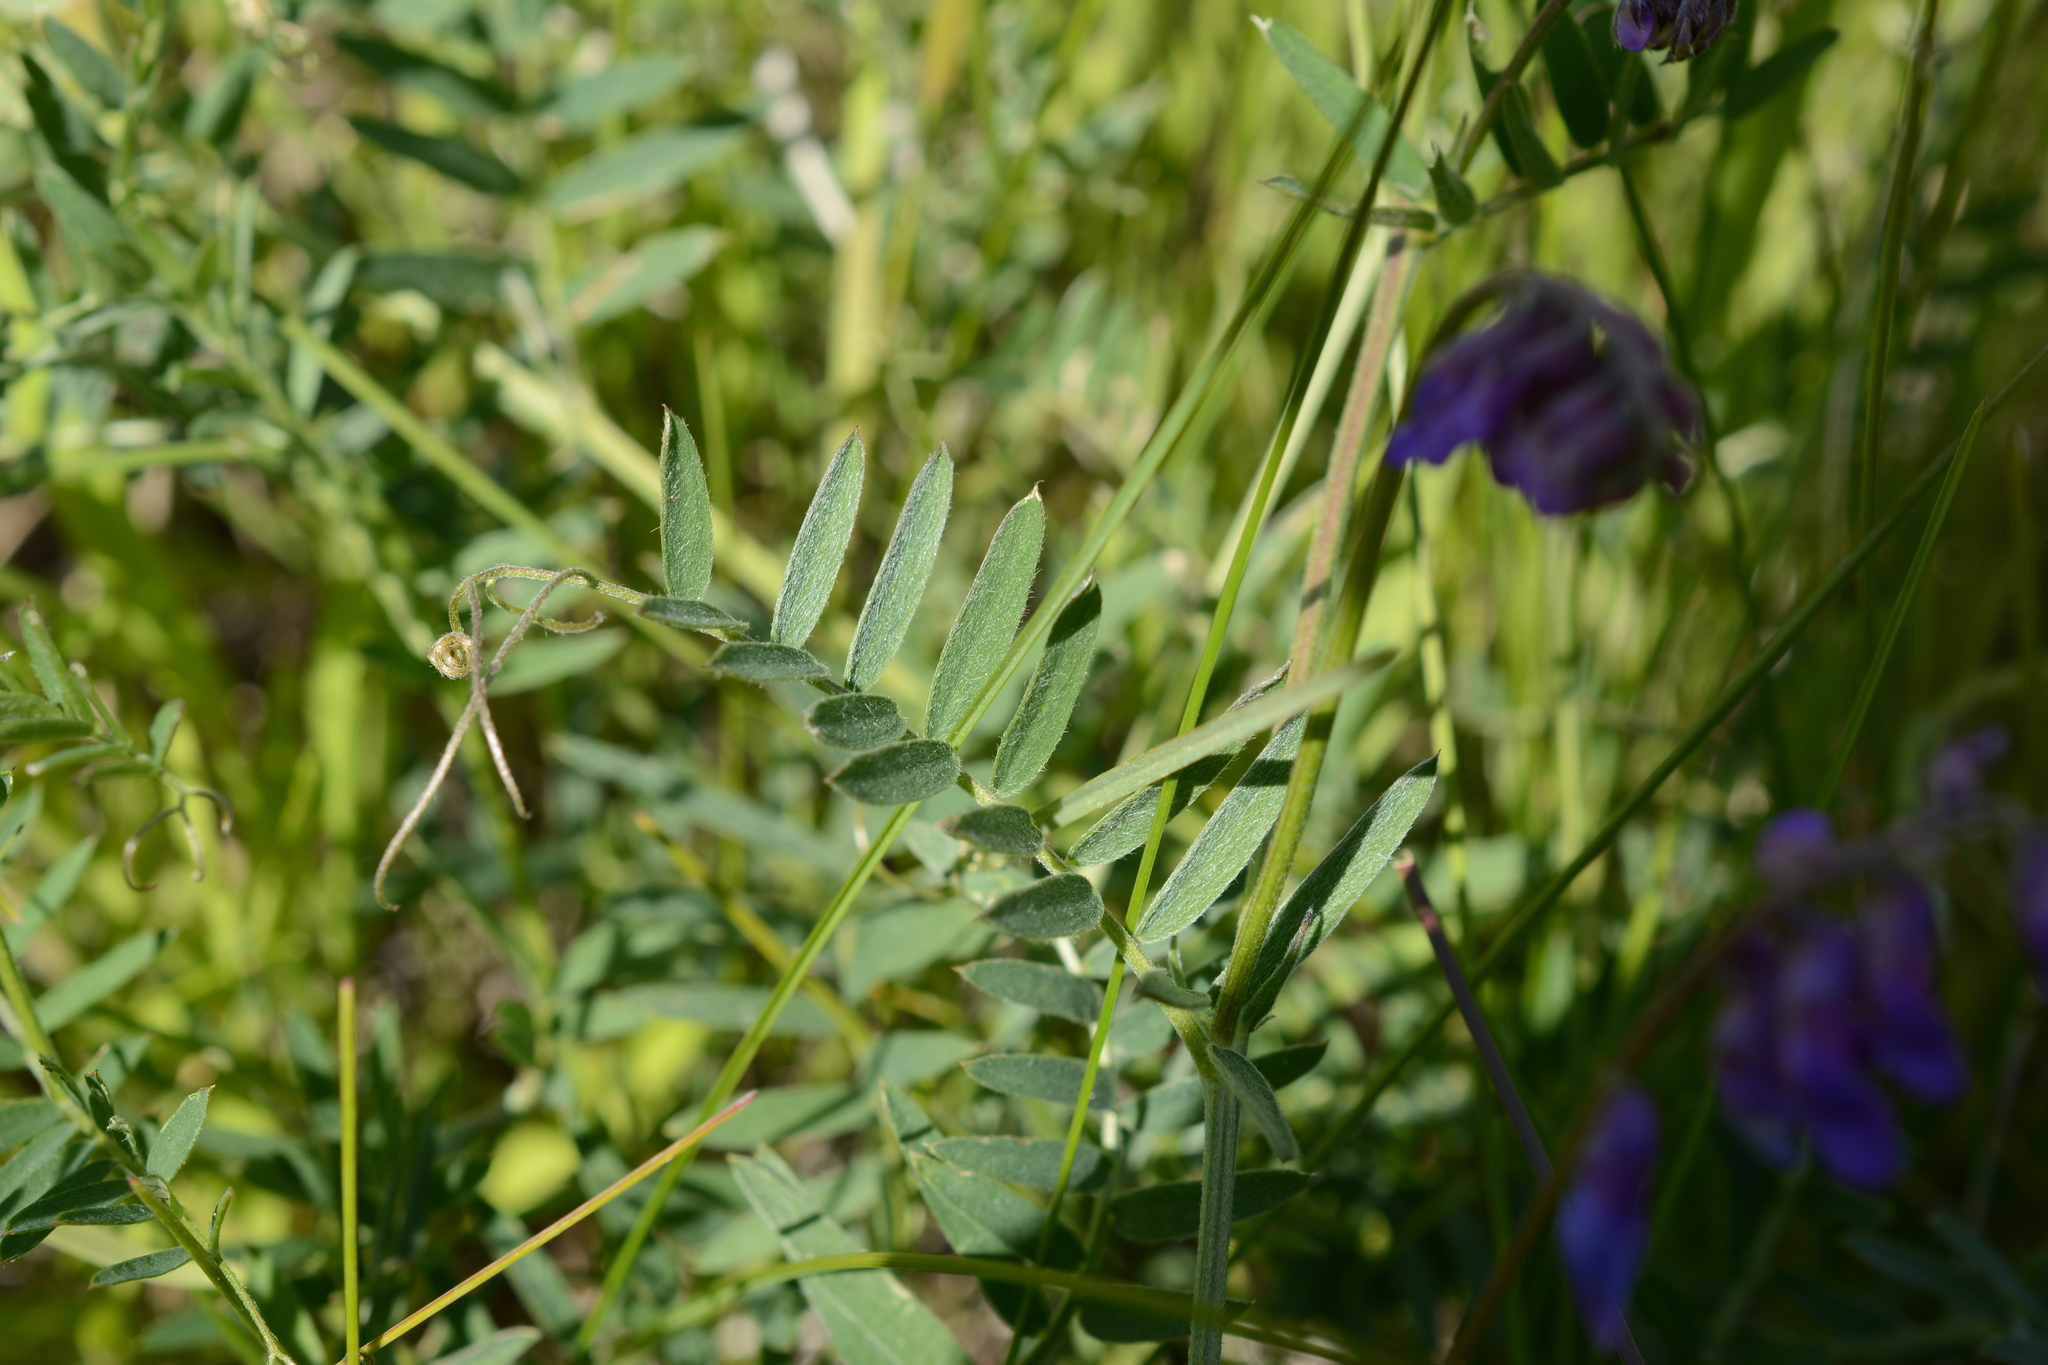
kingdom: Plantae
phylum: Tracheophyta
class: Magnoliopsida
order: Fabales
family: Fabaceae
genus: Vicia
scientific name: Vicia cracca
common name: Bird vetch
